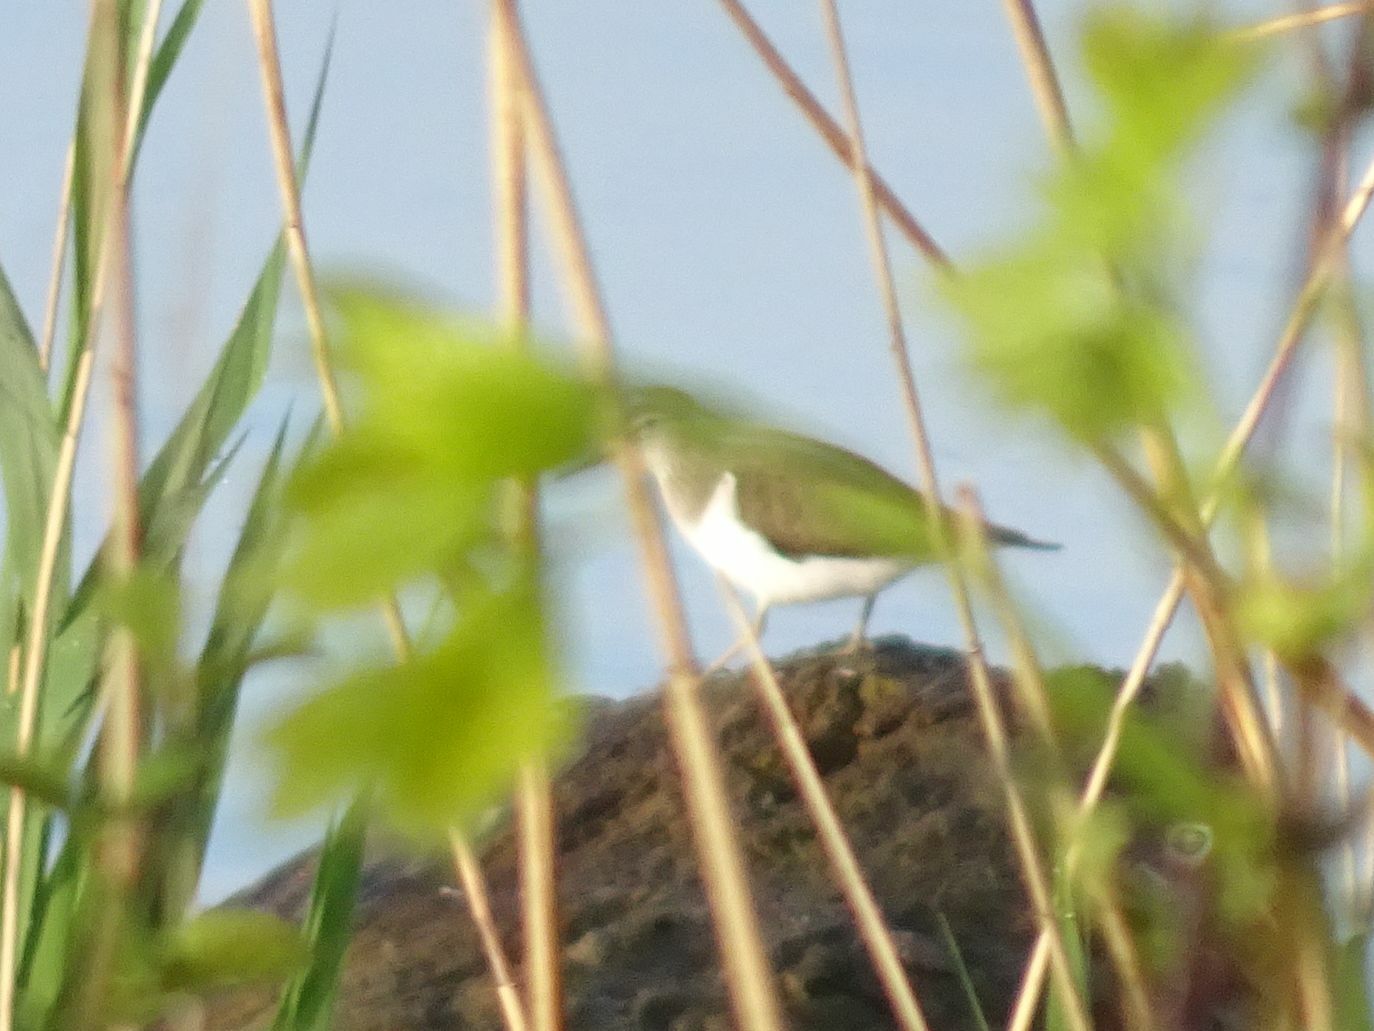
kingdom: Animalia
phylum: Chordata
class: Aves
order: Charadriiformes
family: Scolopacidae
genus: Actitis
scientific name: Actitis hypoleucos
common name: Common sandpiper
